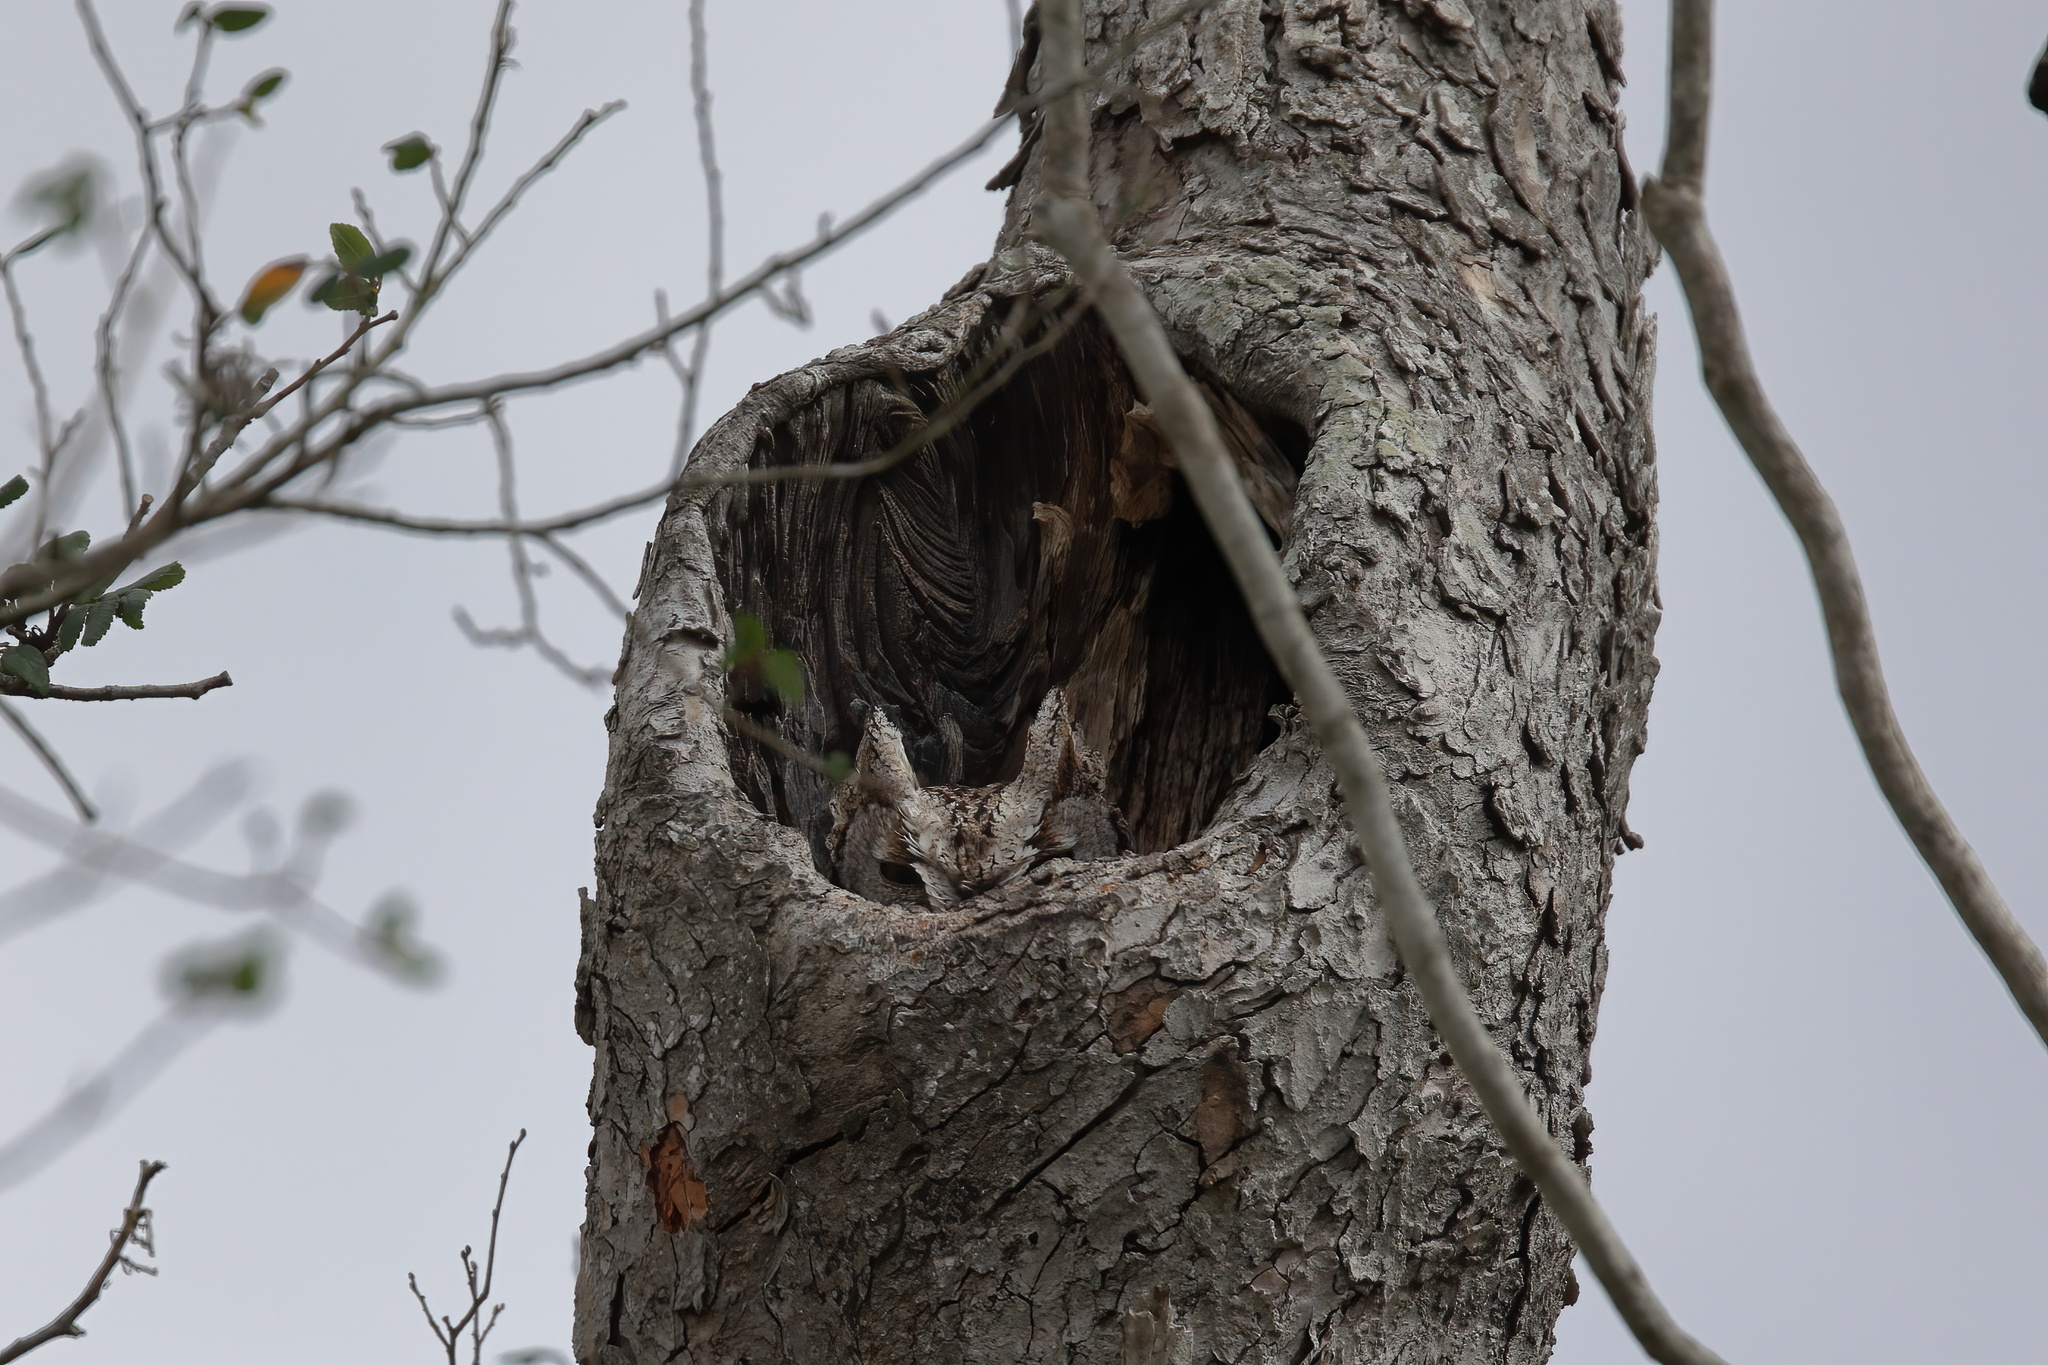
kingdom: Animalia
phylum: Chordata
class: Aves
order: Strigiformes
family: Strigidae
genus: Megascops
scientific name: Megascops asio
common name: Eastern screech-owl
